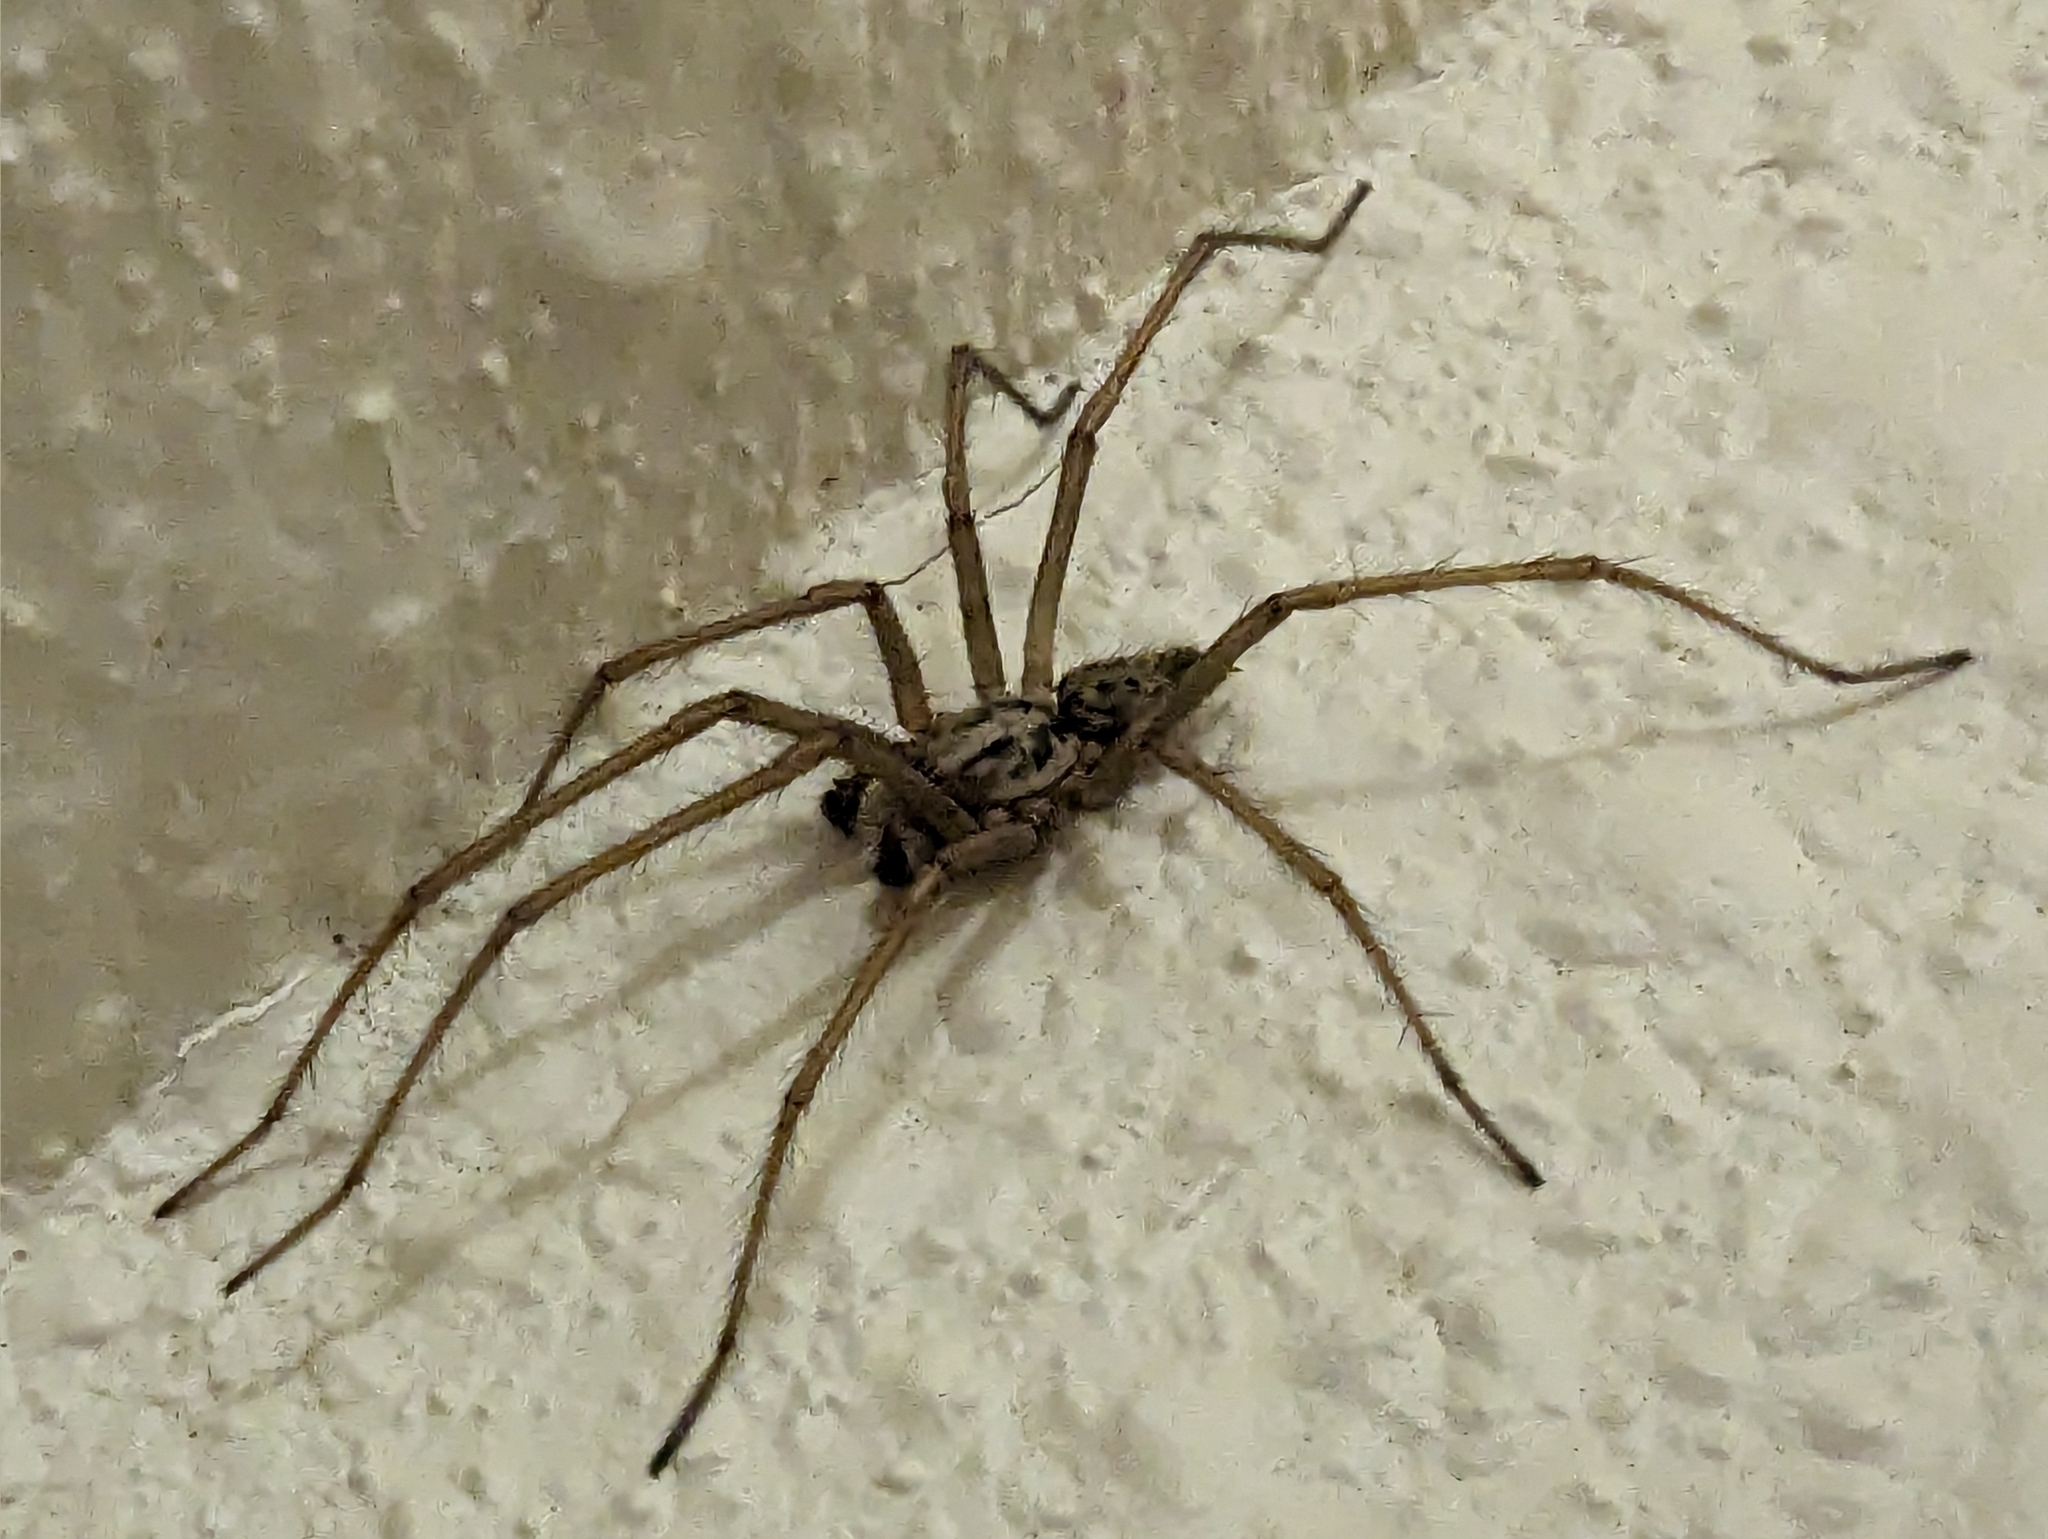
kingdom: Animalia
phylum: Arthropoda
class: Arachnida
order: Araneae
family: Agelenidae
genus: Eratigena
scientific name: Eratigena duellica
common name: Giant house spider
